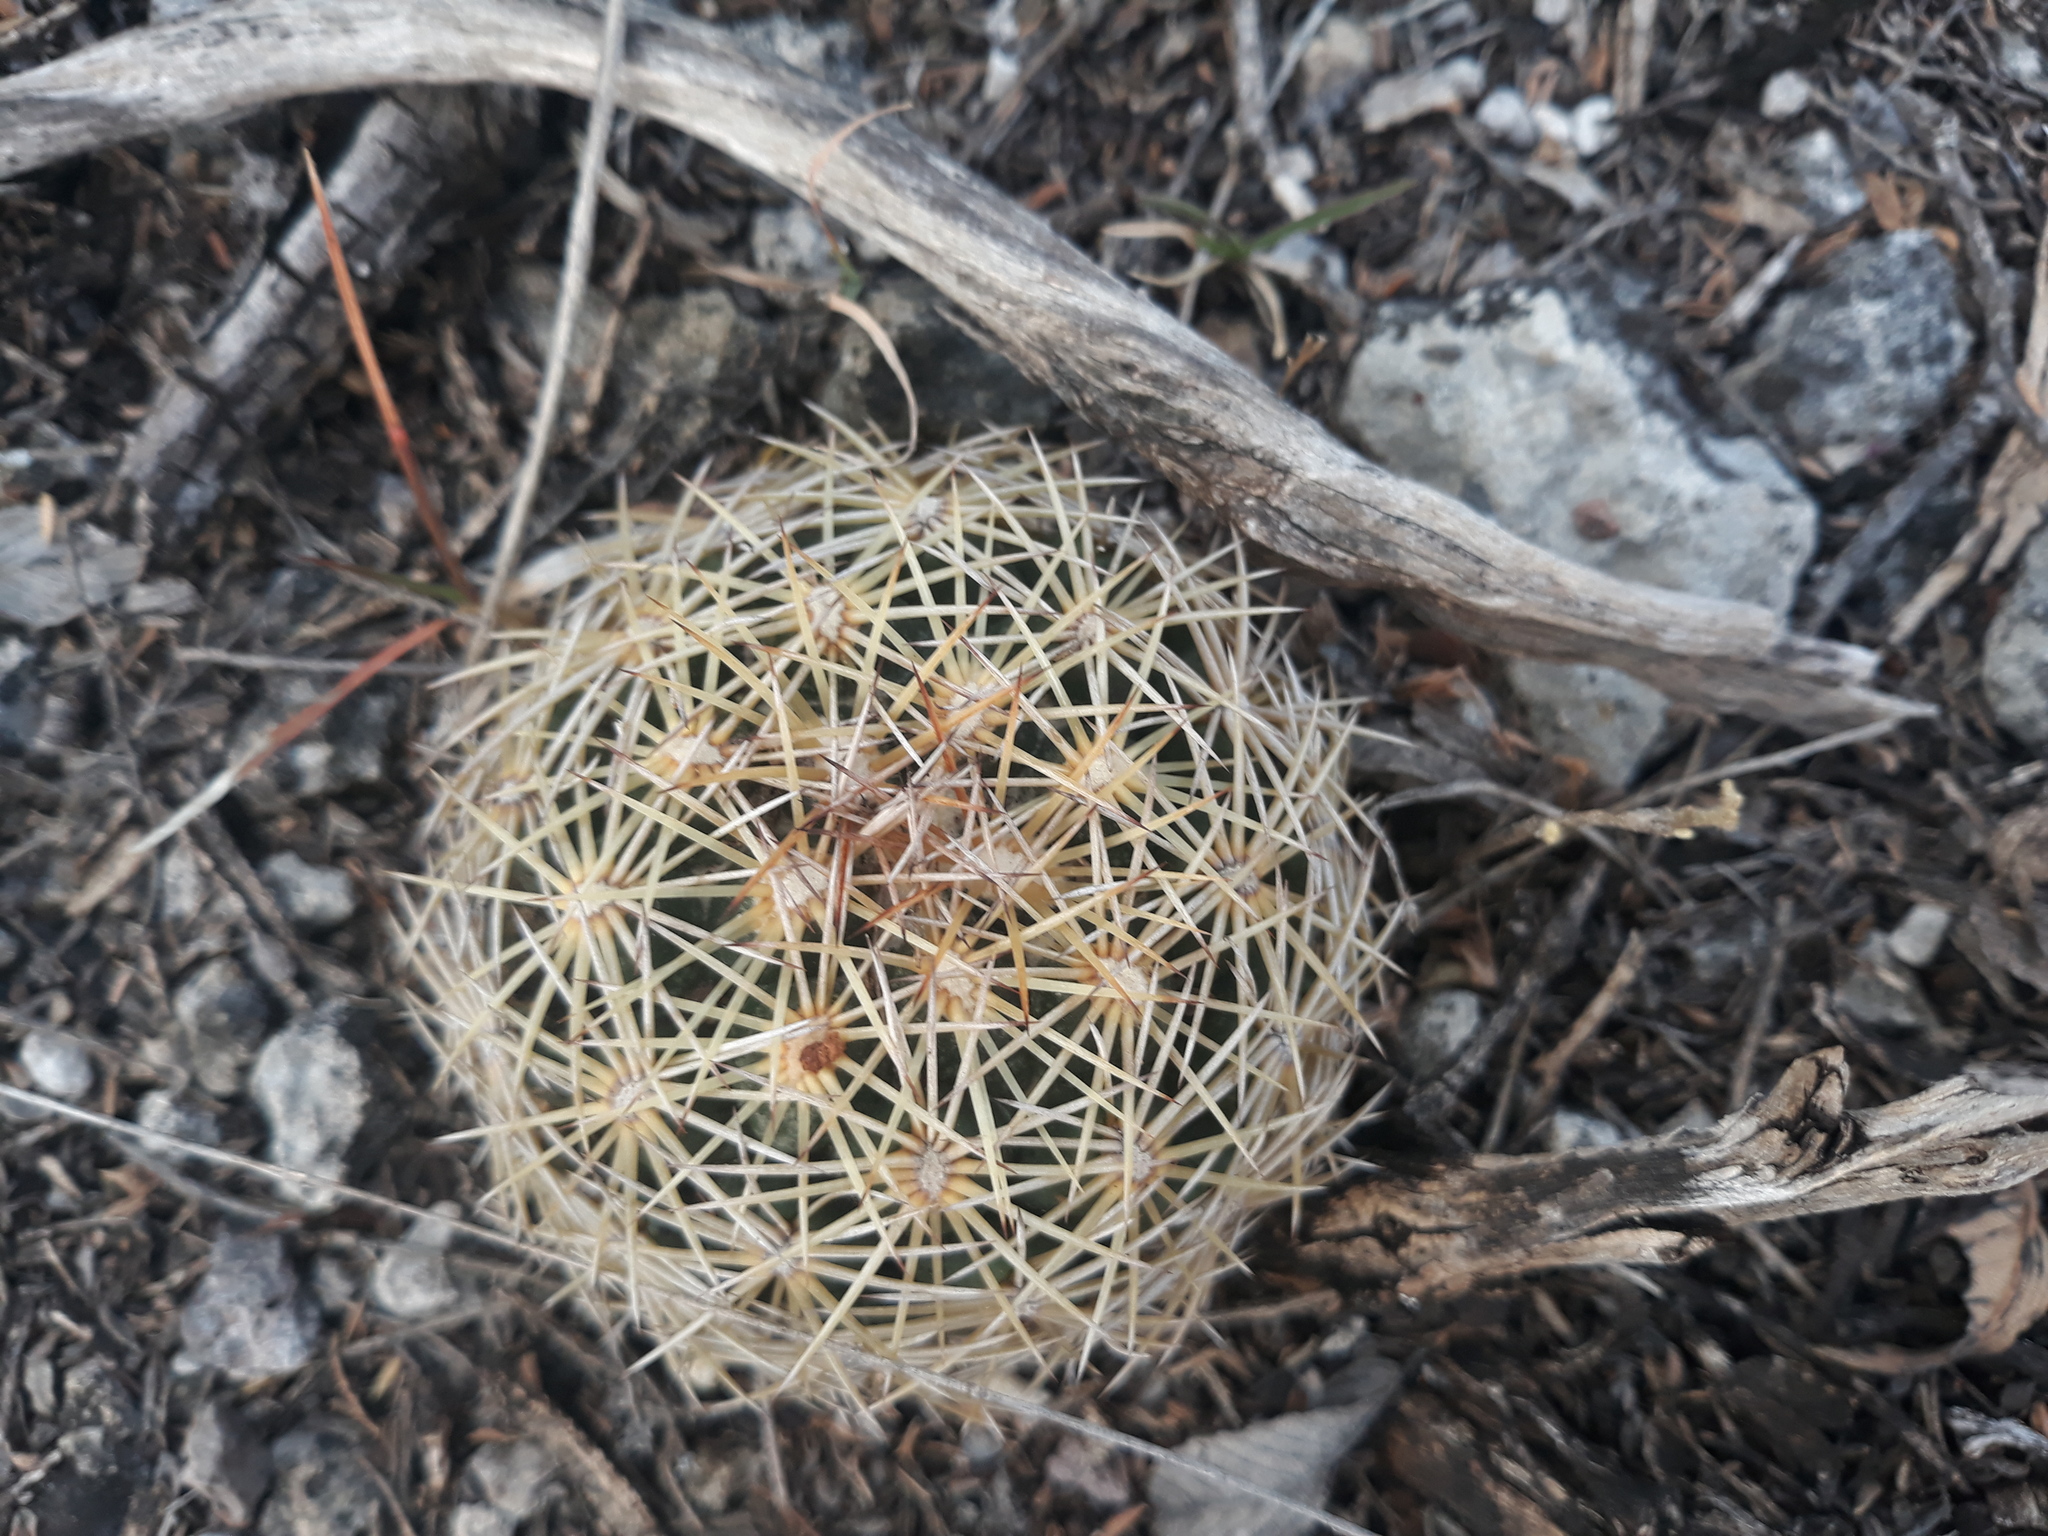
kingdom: Plantae
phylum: Tracheophyta
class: Magnoliopsida
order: Caryophyllales
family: Cactaceae
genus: Coryphantha
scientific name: Coryphantha cornifera
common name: Rhinoceros cactus
